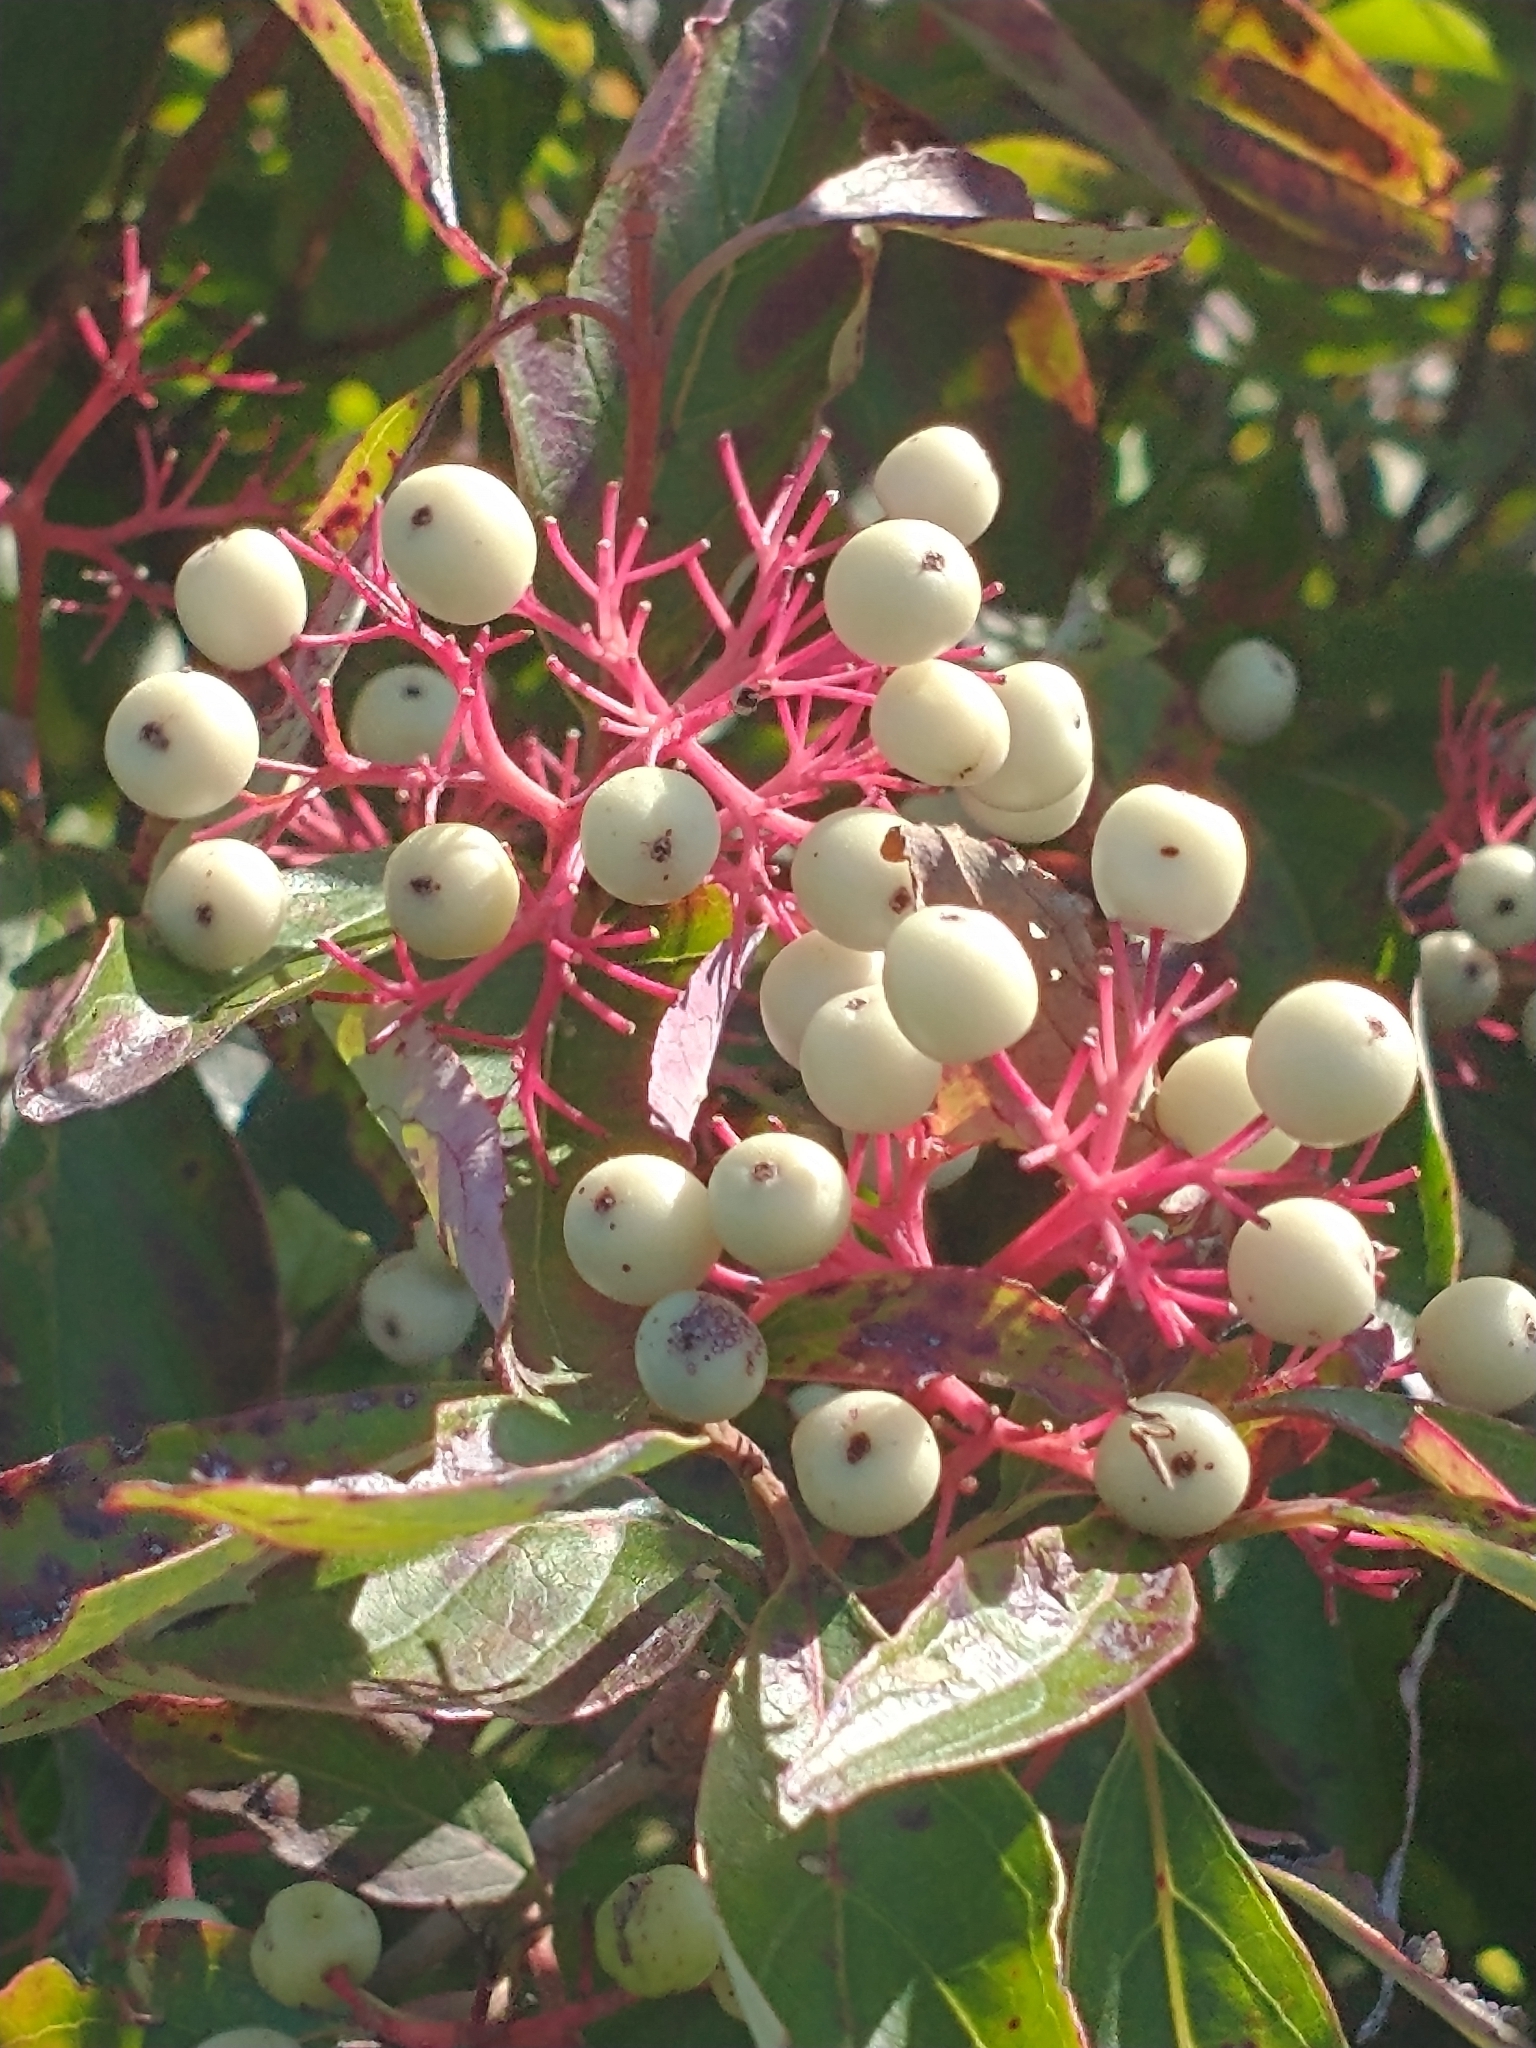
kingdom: Plantae
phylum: Tracheophyta
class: Magnoliopsida
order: Cornales
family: Cornaceae
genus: Cornus
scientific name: Cornus racemosa
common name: Panicled dogwood
